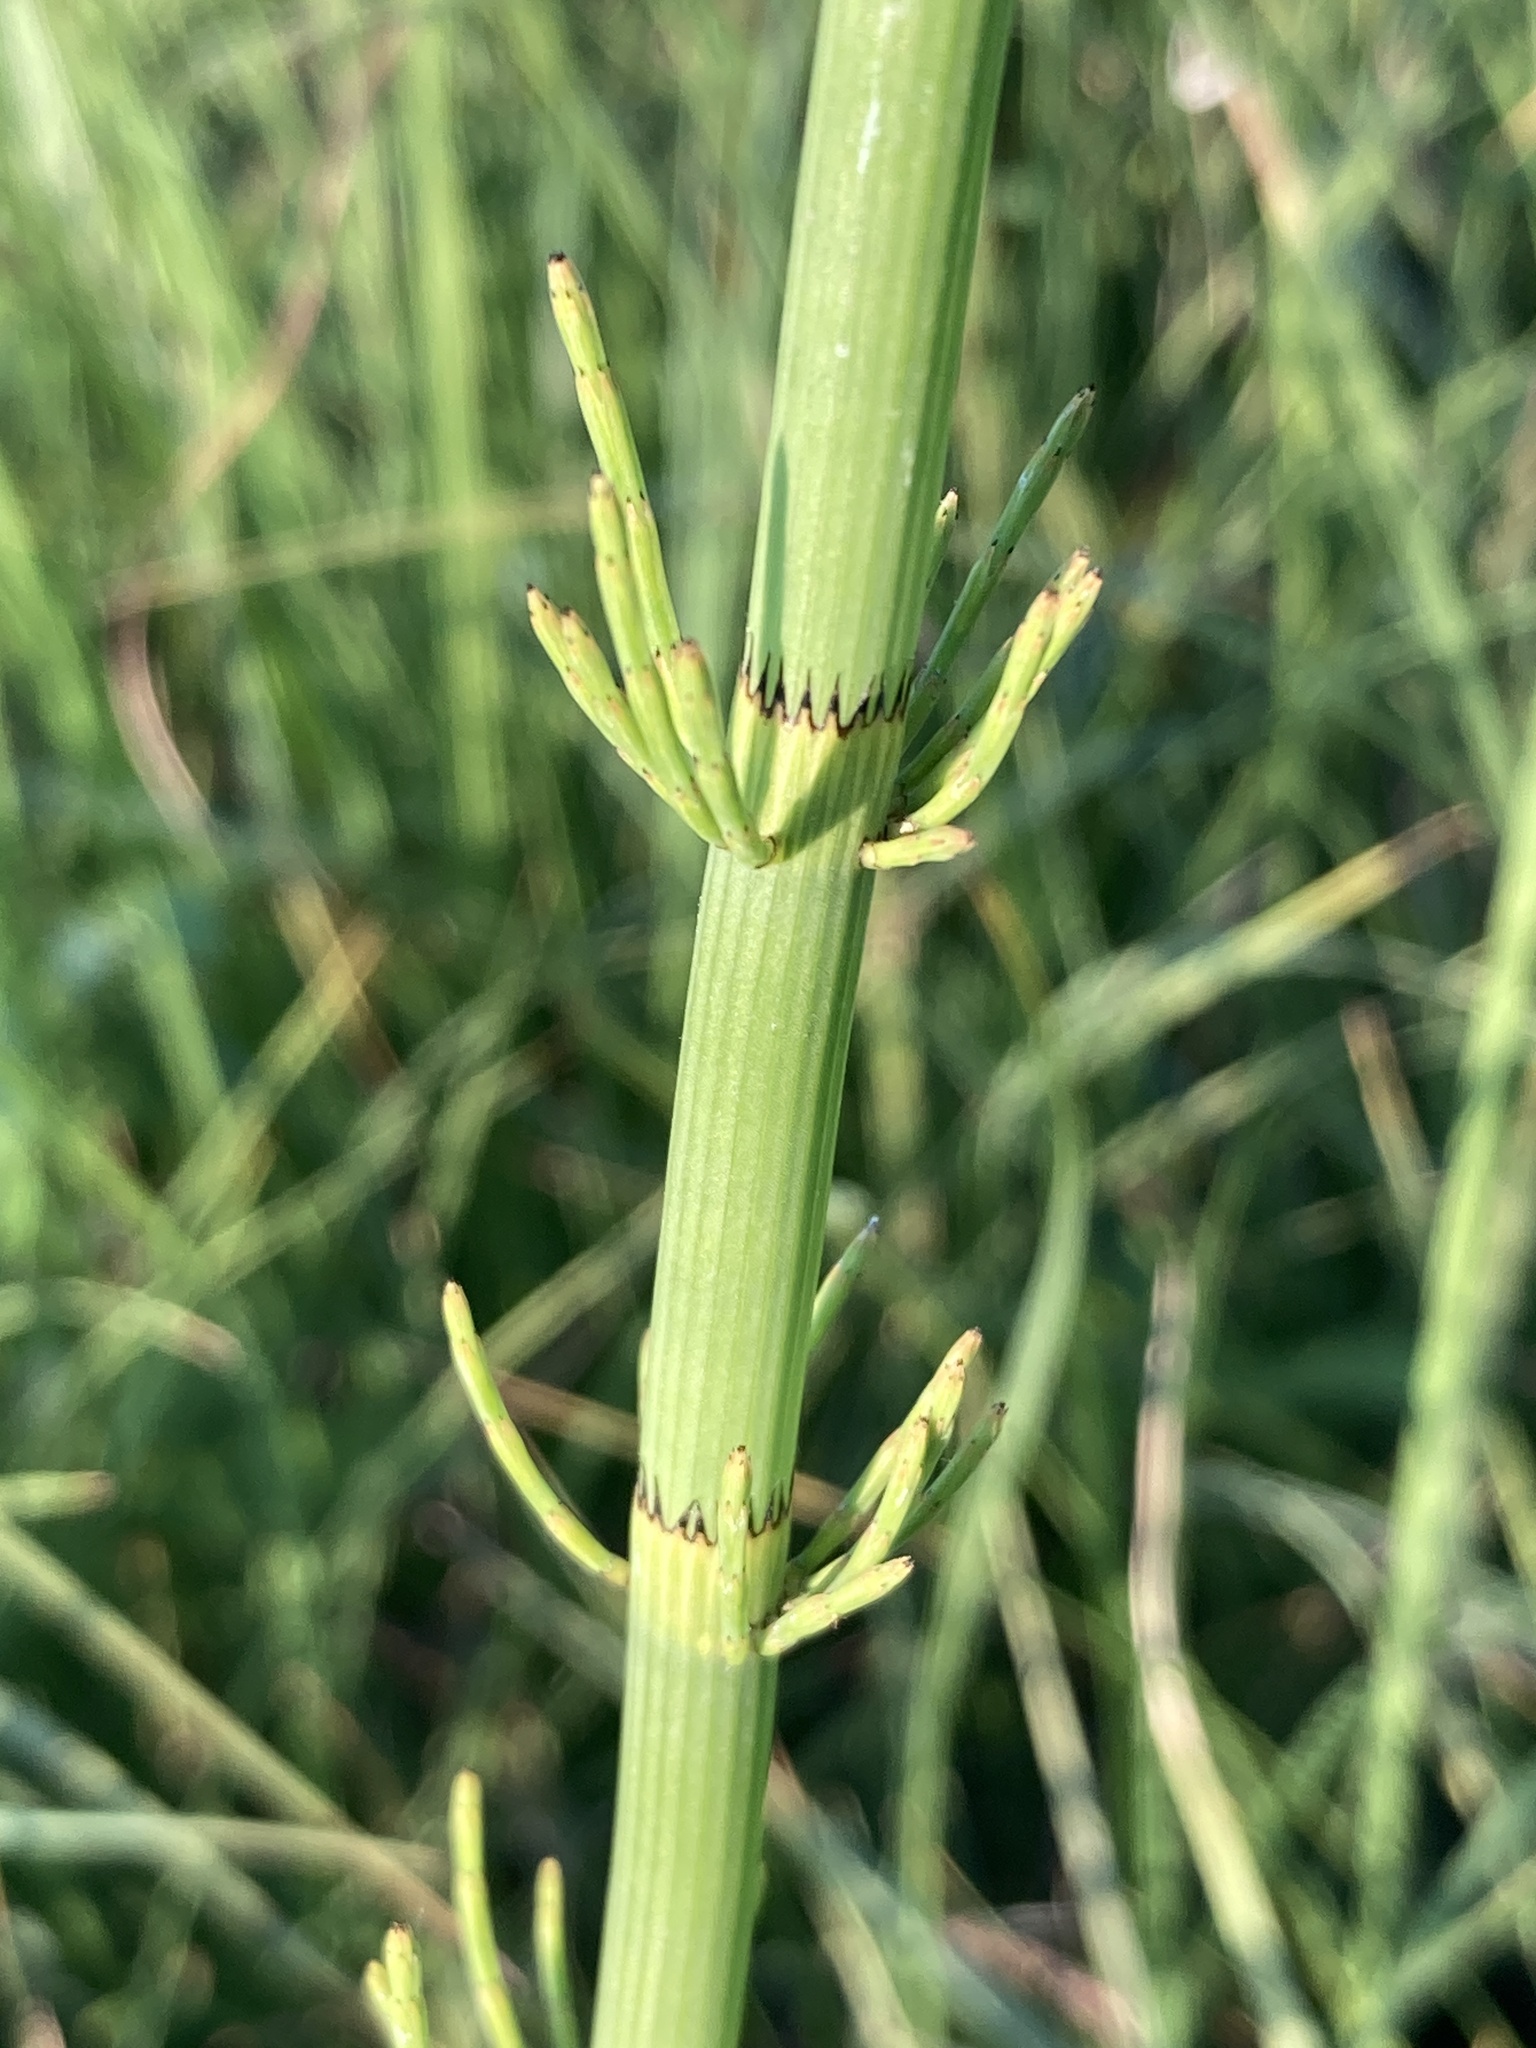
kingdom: Plantae
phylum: Tracheophyta
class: Polypodiopsida
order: Equisetales
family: Equisetaceae
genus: Equisetum
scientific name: Equisetum fluviatile
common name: Water horsetail
